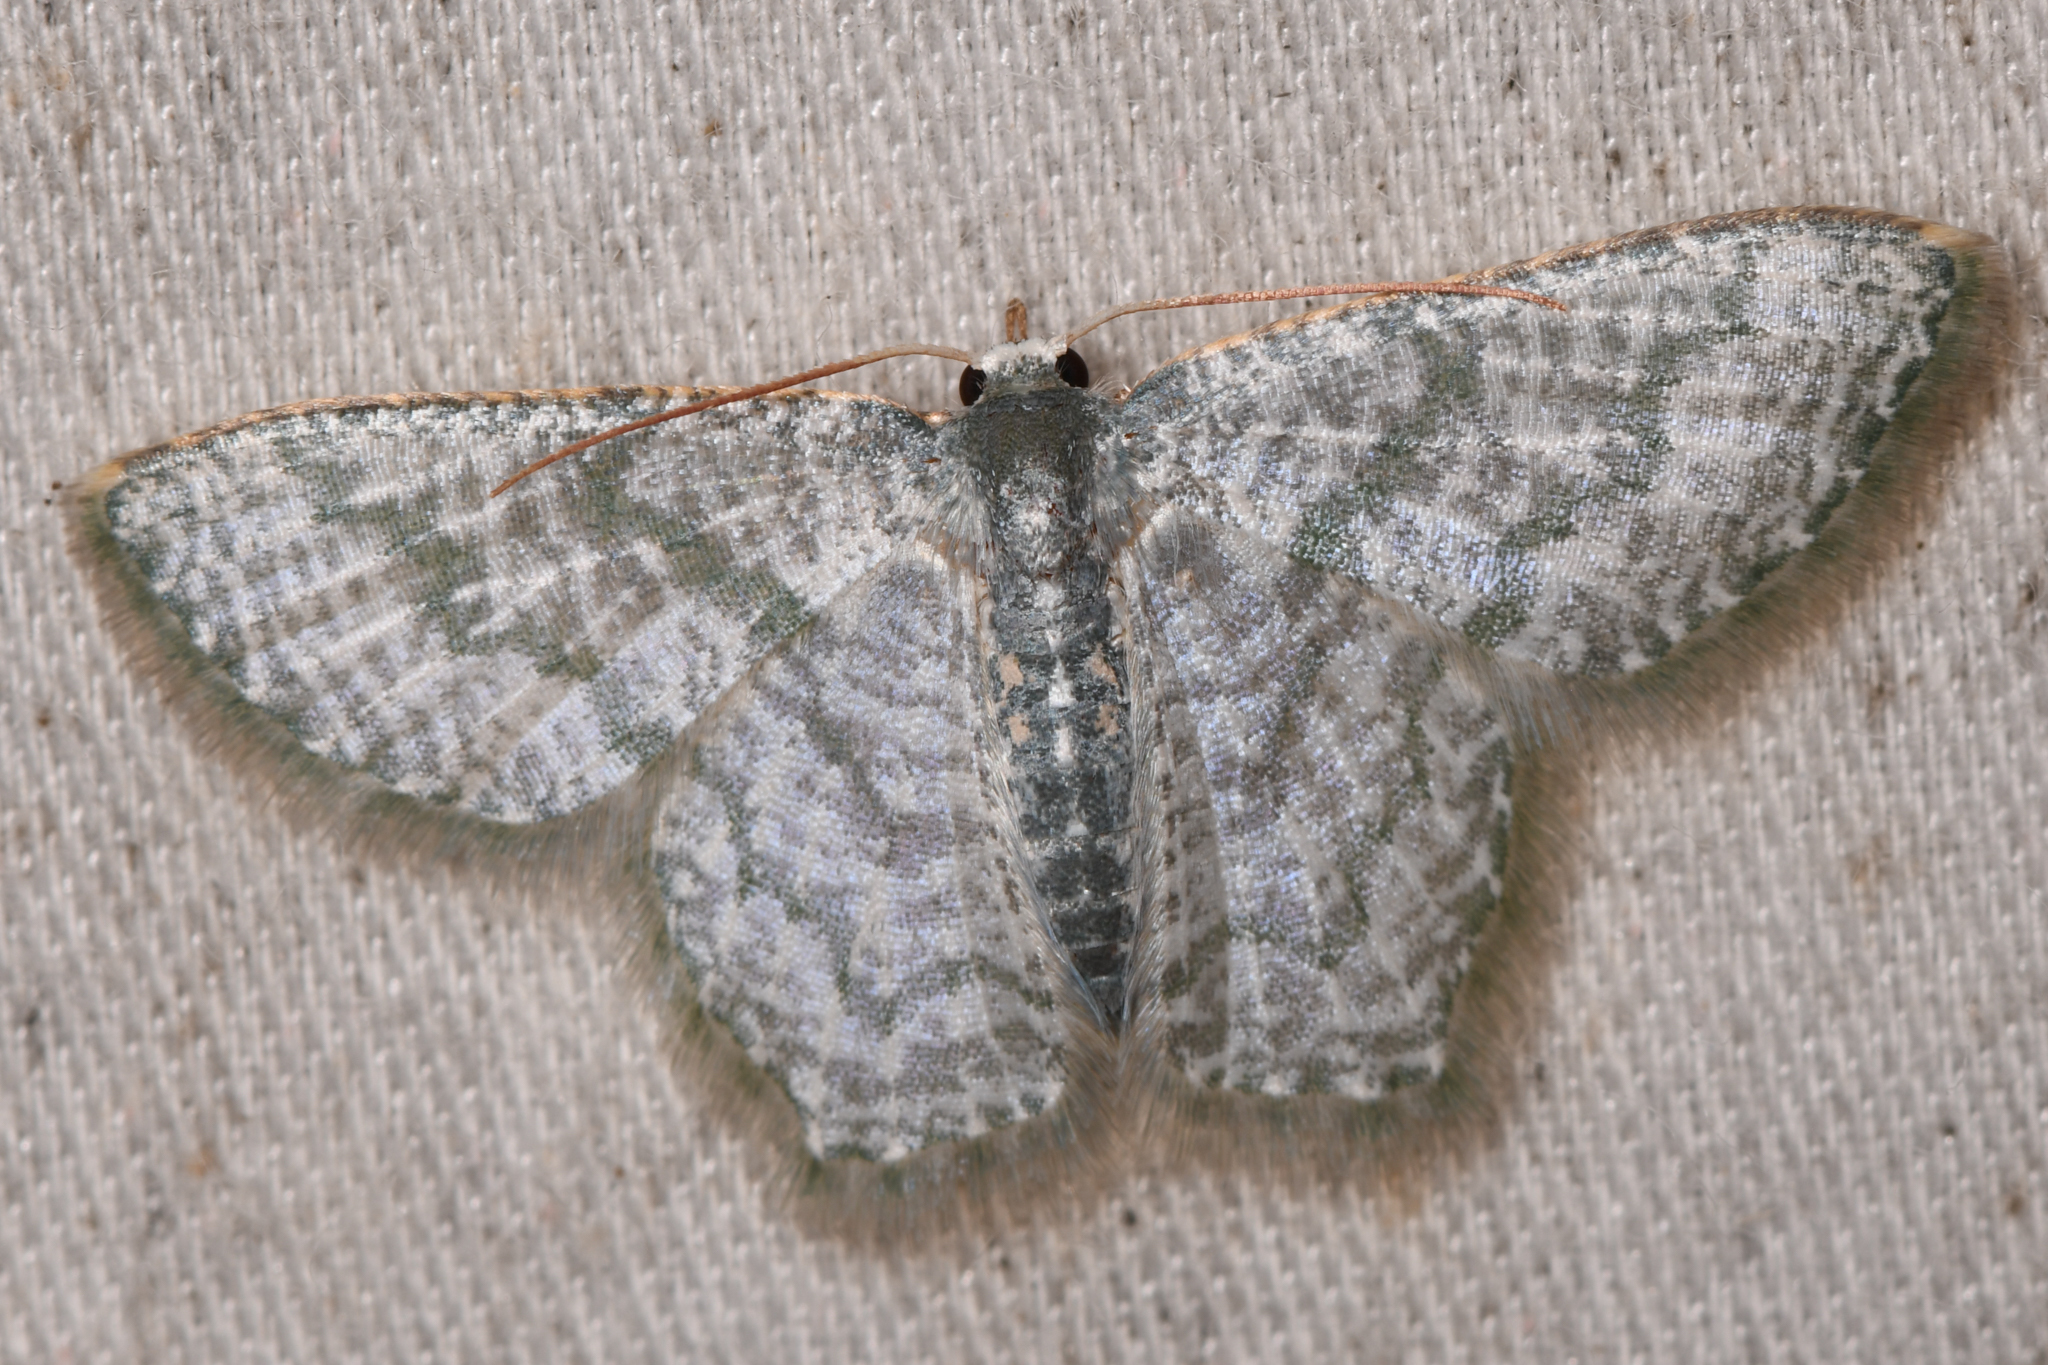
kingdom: Animalia
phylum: Arthropoda
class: Insecta
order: Lepidoptera
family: Geometridae
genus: Chloropteryx
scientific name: Chloropteryx opalaria
